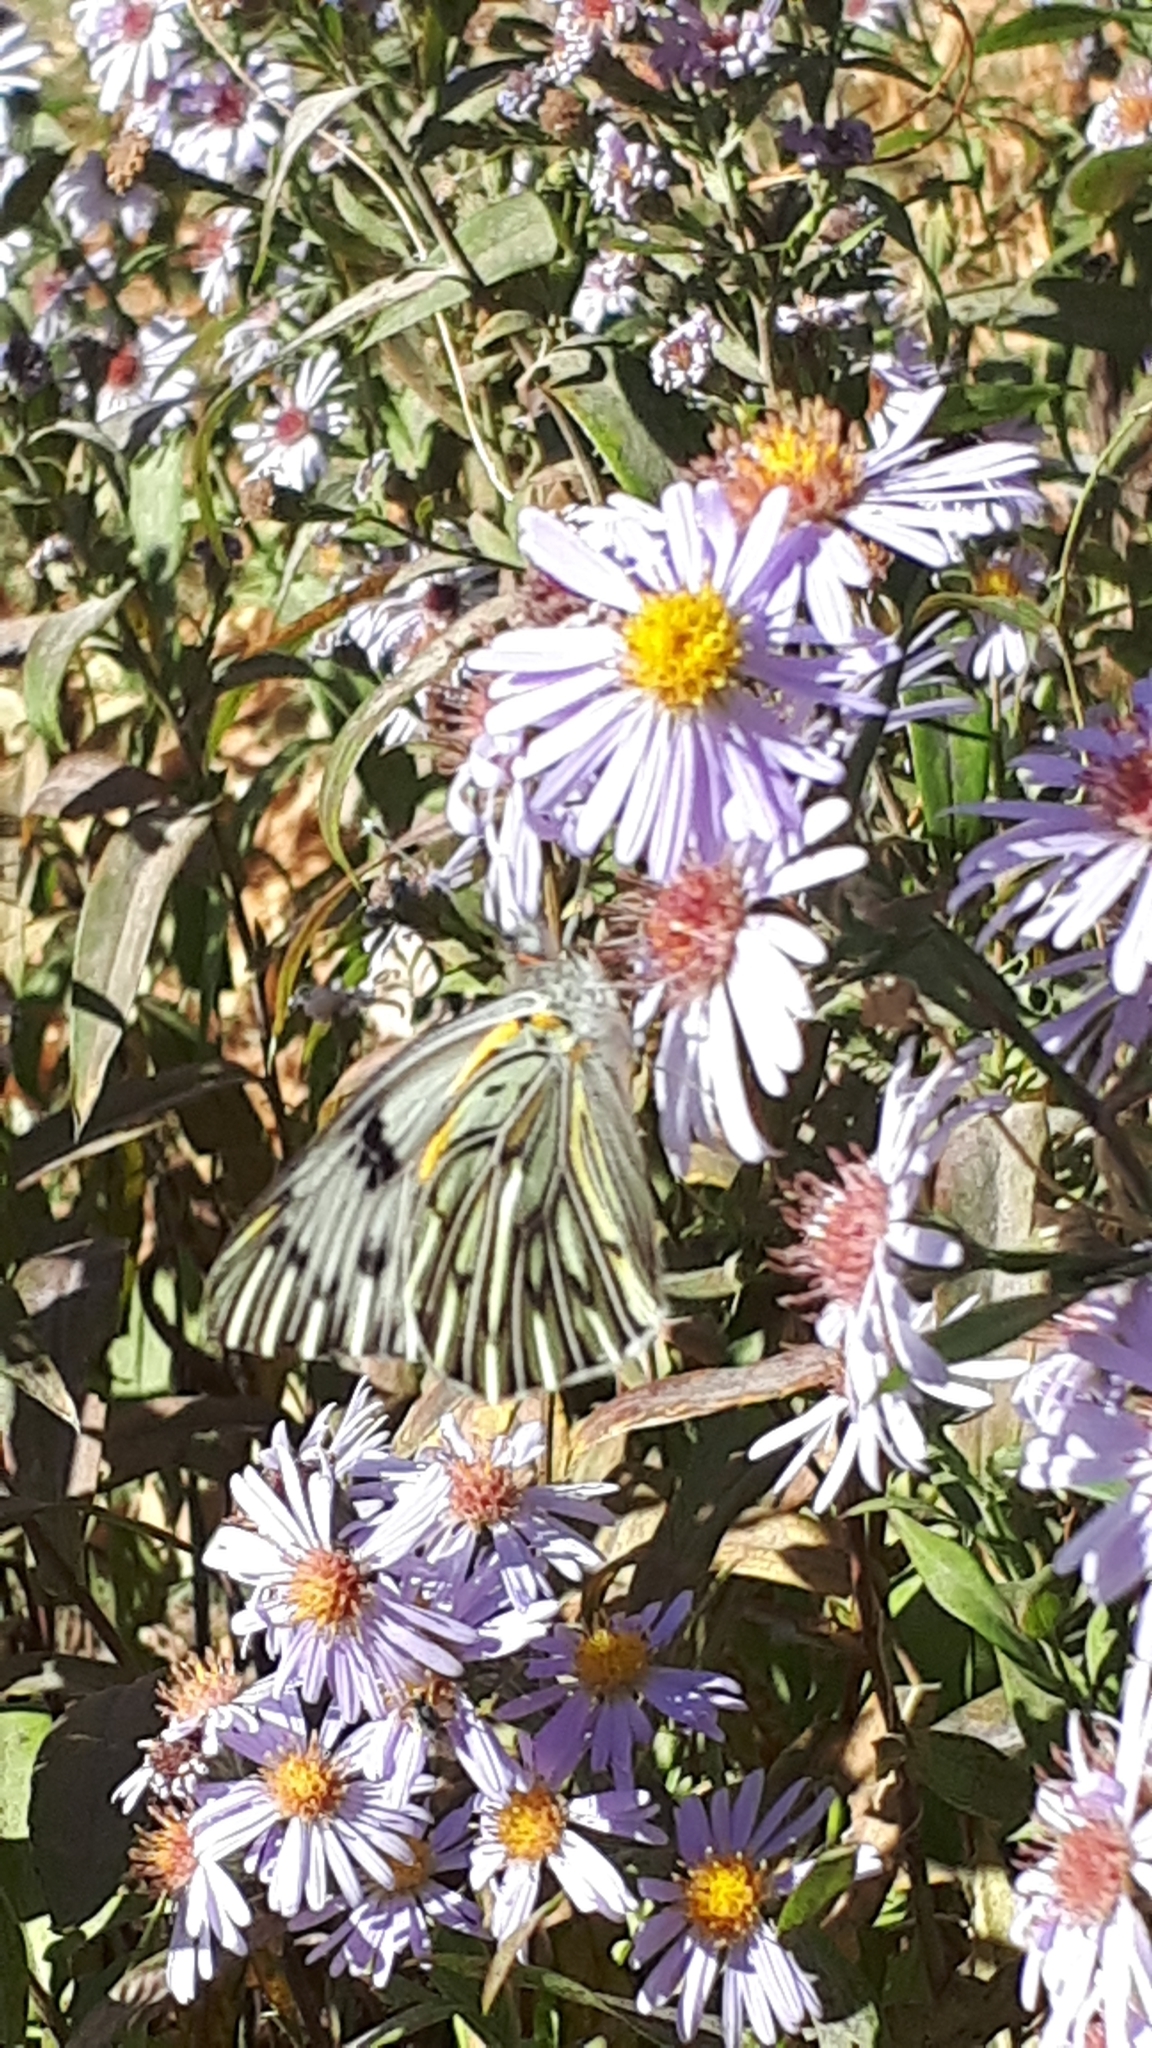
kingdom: Animalia
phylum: Arthropoda
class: Insecta
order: Lepidoptera
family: Pieridae
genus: Tatochila
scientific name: Tatochila autodice
